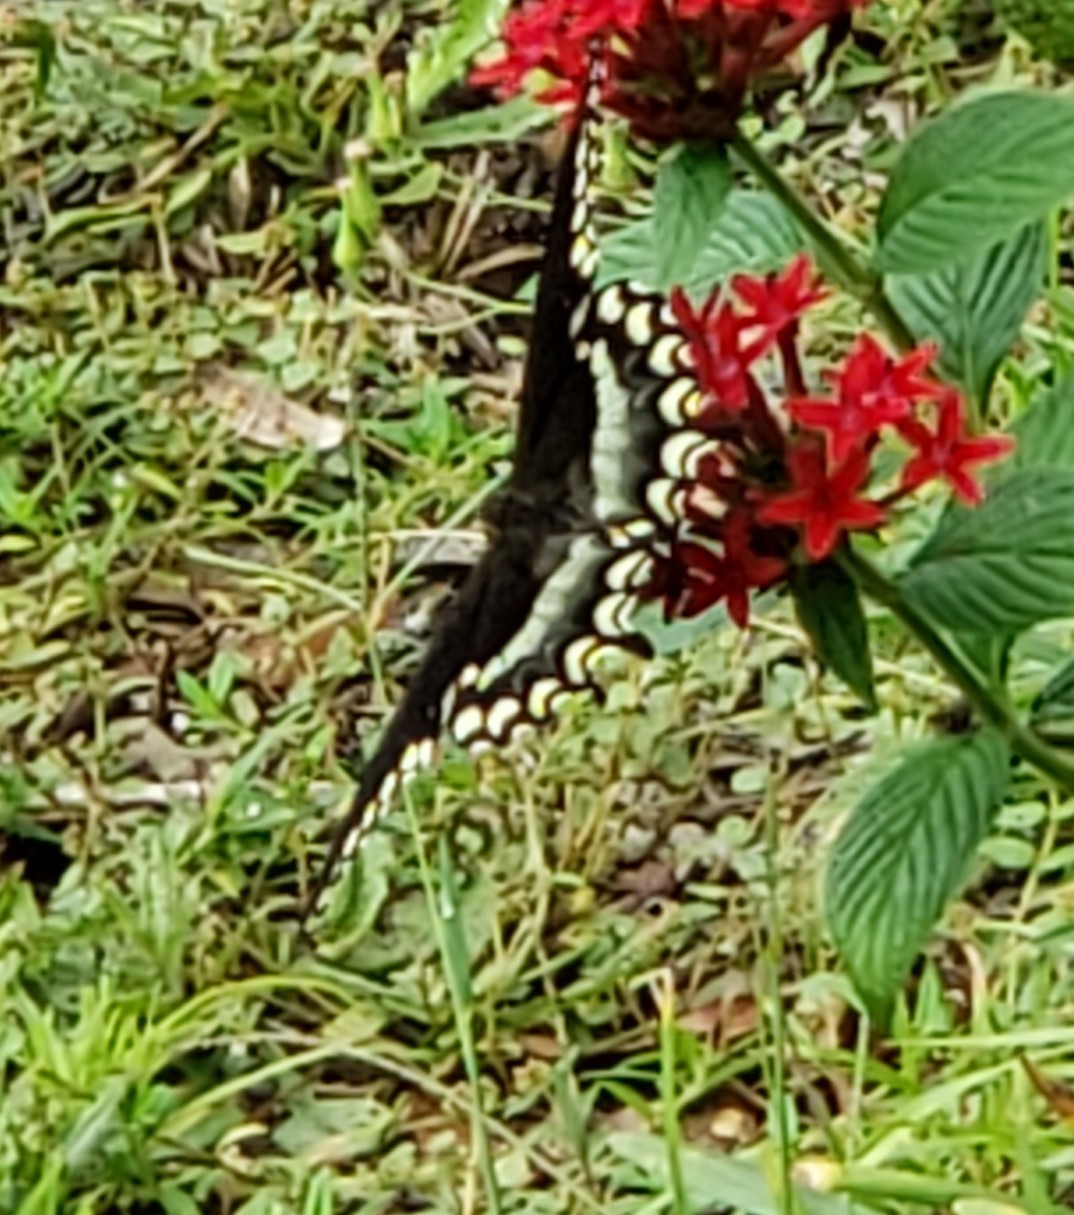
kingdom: Animalia
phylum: Arthropoda
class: Insecta
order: Lepidoptera
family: Papilionidae
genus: Papilio
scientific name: Papilio troilus
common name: Spicebush swallowtail
